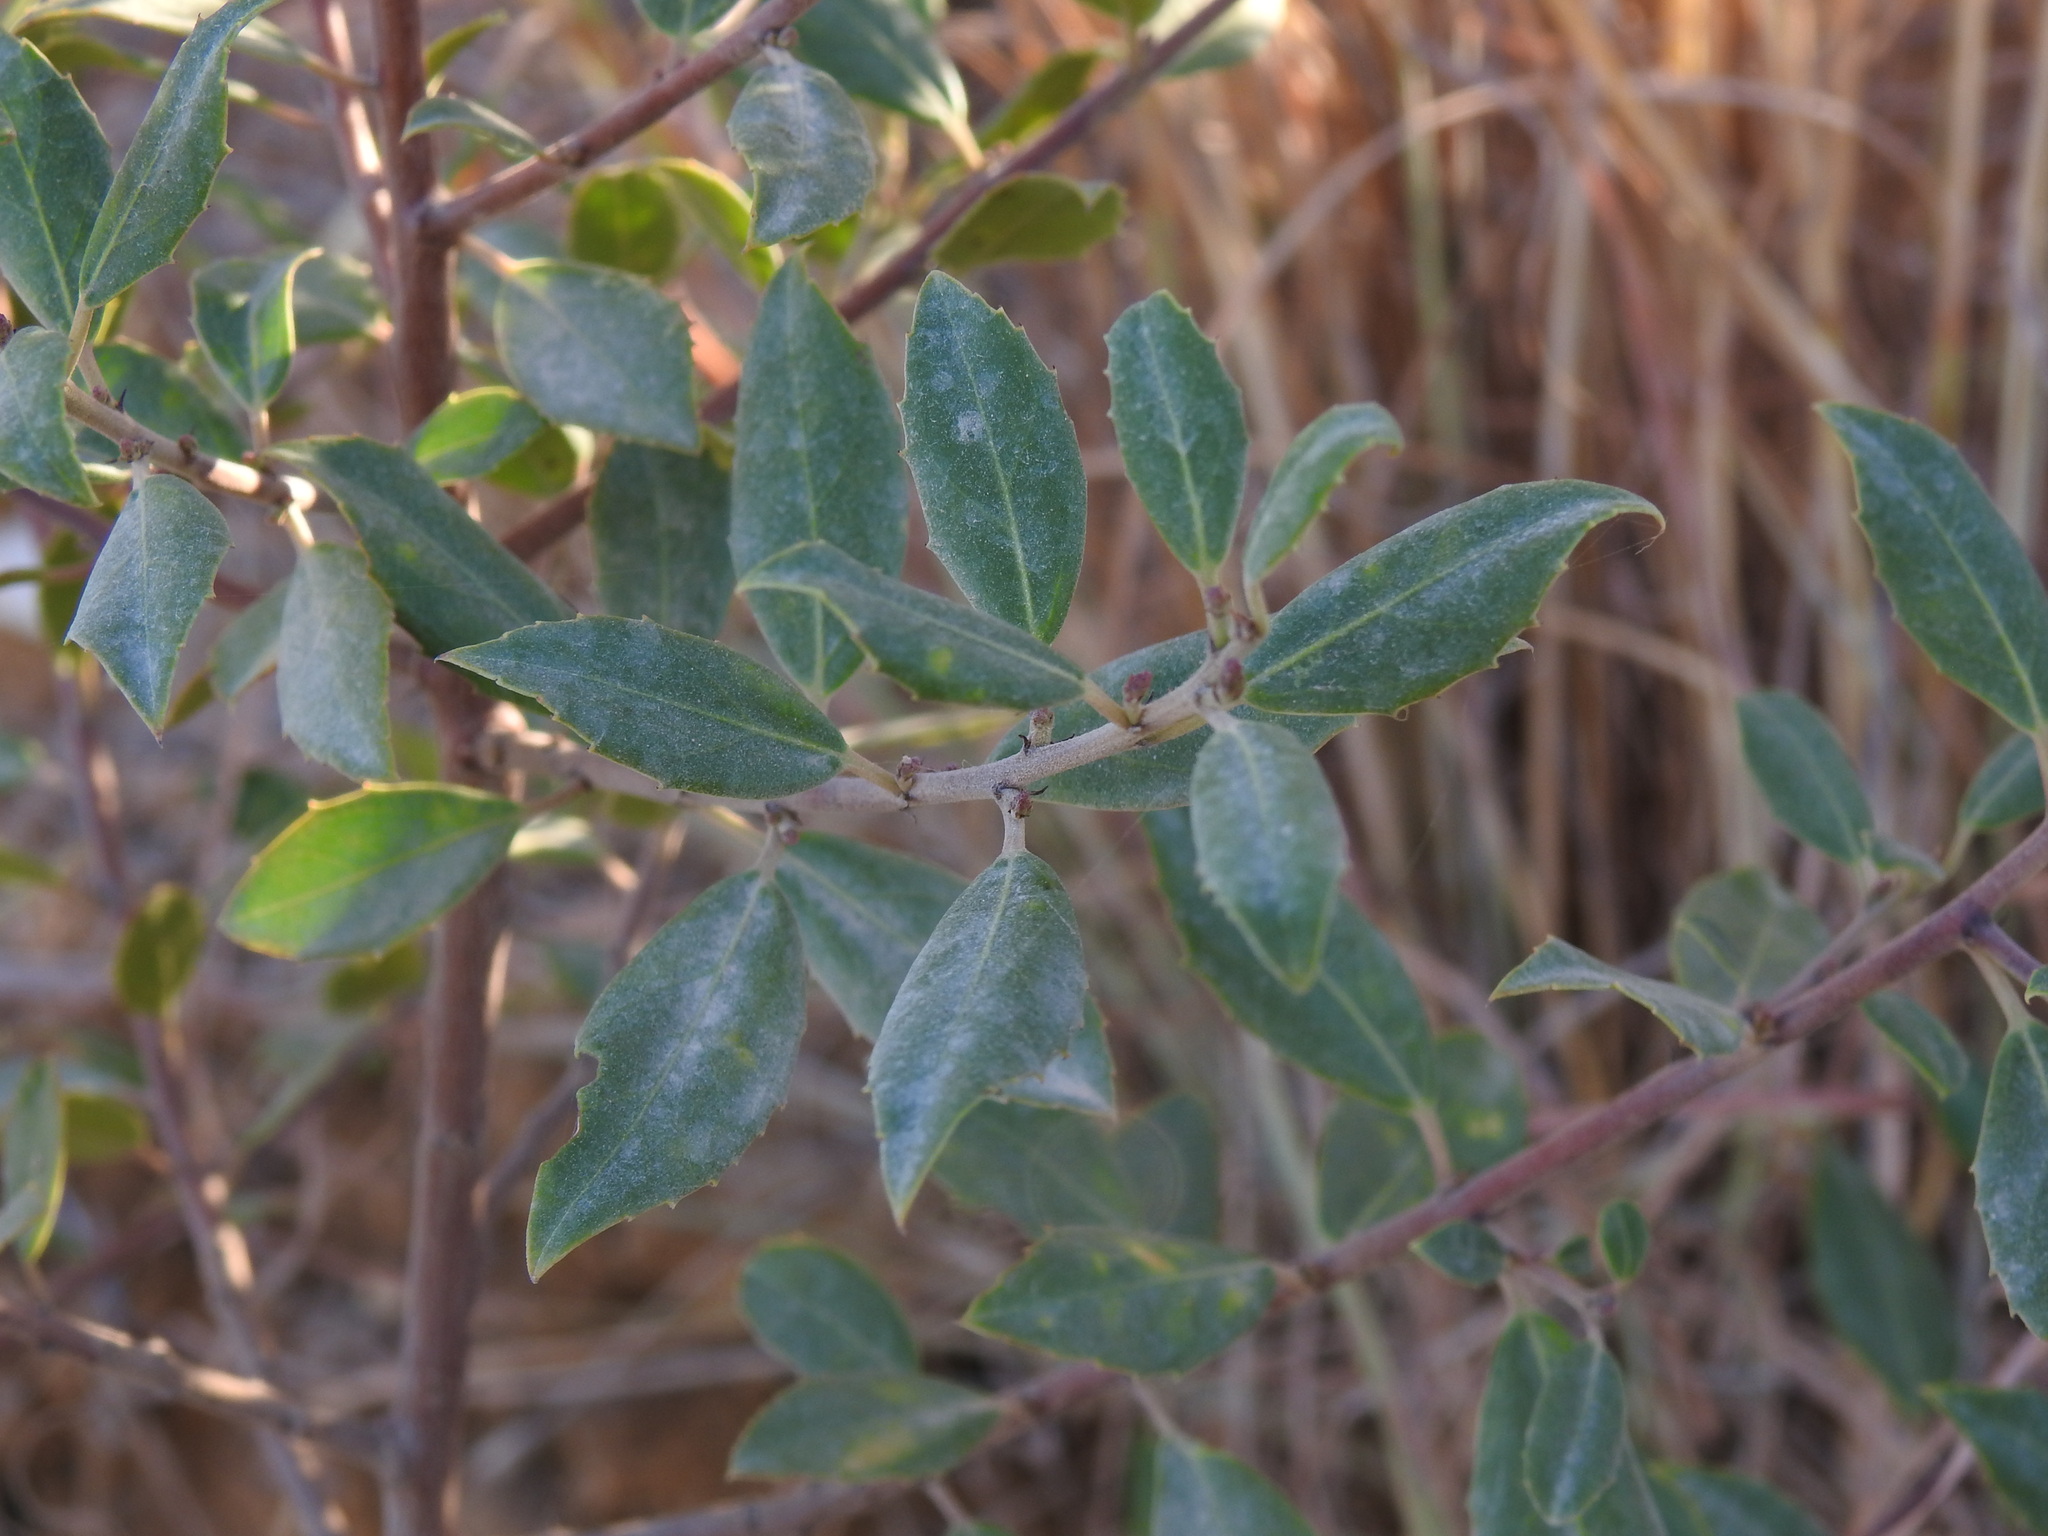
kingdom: Plantae
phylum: Tracheophyta
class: Magnoliopsida
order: Rosales
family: Rhamnaceae
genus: Rhamnus
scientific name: Rhamnus alaternus
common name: Mediterranean buckthorn
